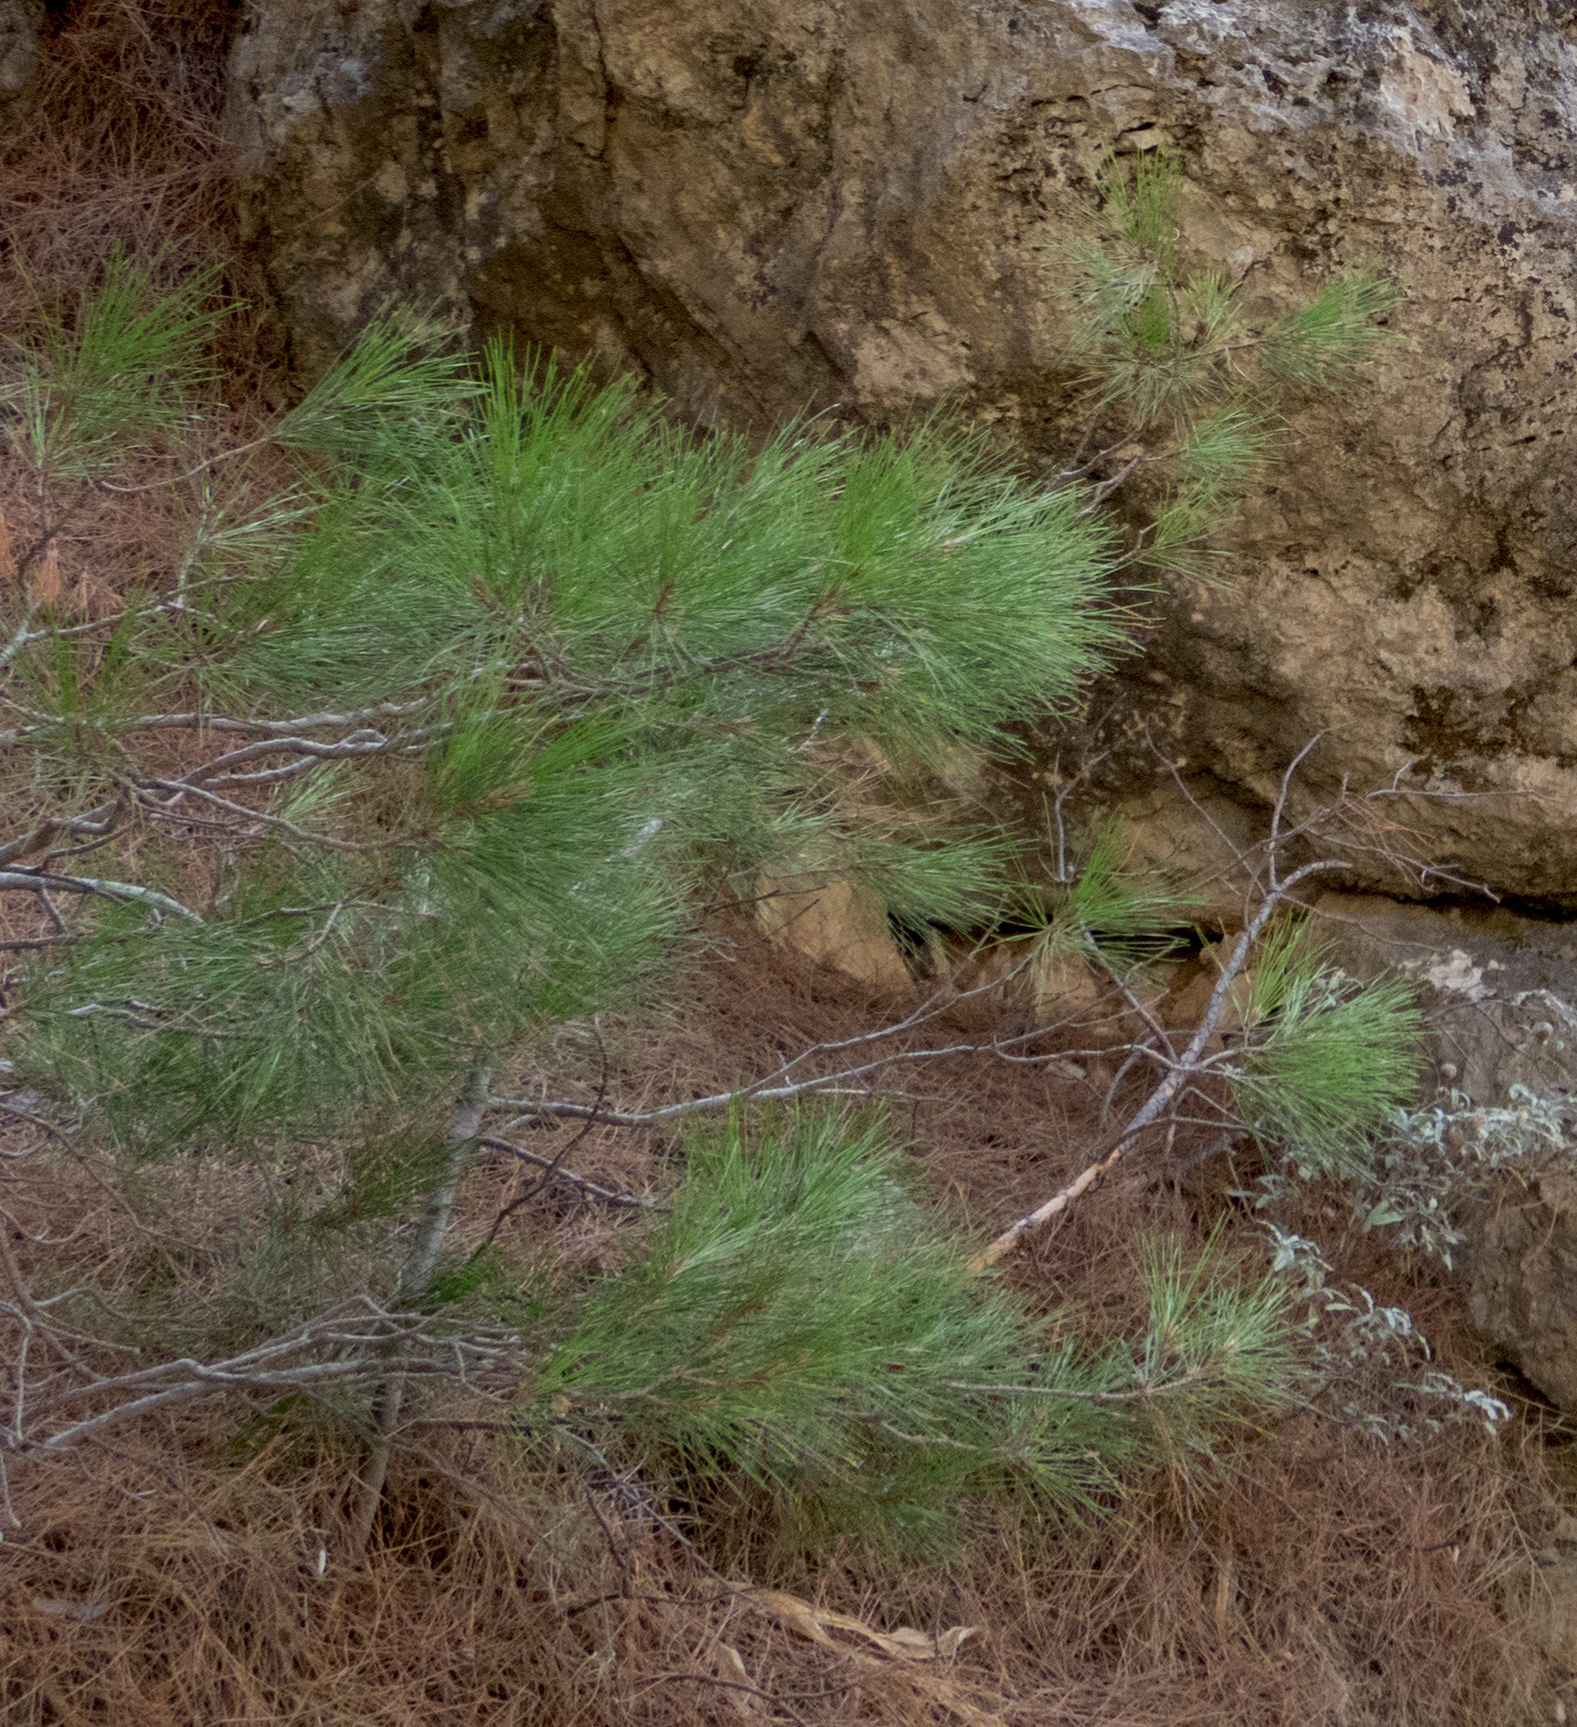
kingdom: Plantae
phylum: Tracheophyta
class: Pinopsida
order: Pinales
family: Pinaceae
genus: Pinus
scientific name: Pinus brutia
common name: Turkish pine
